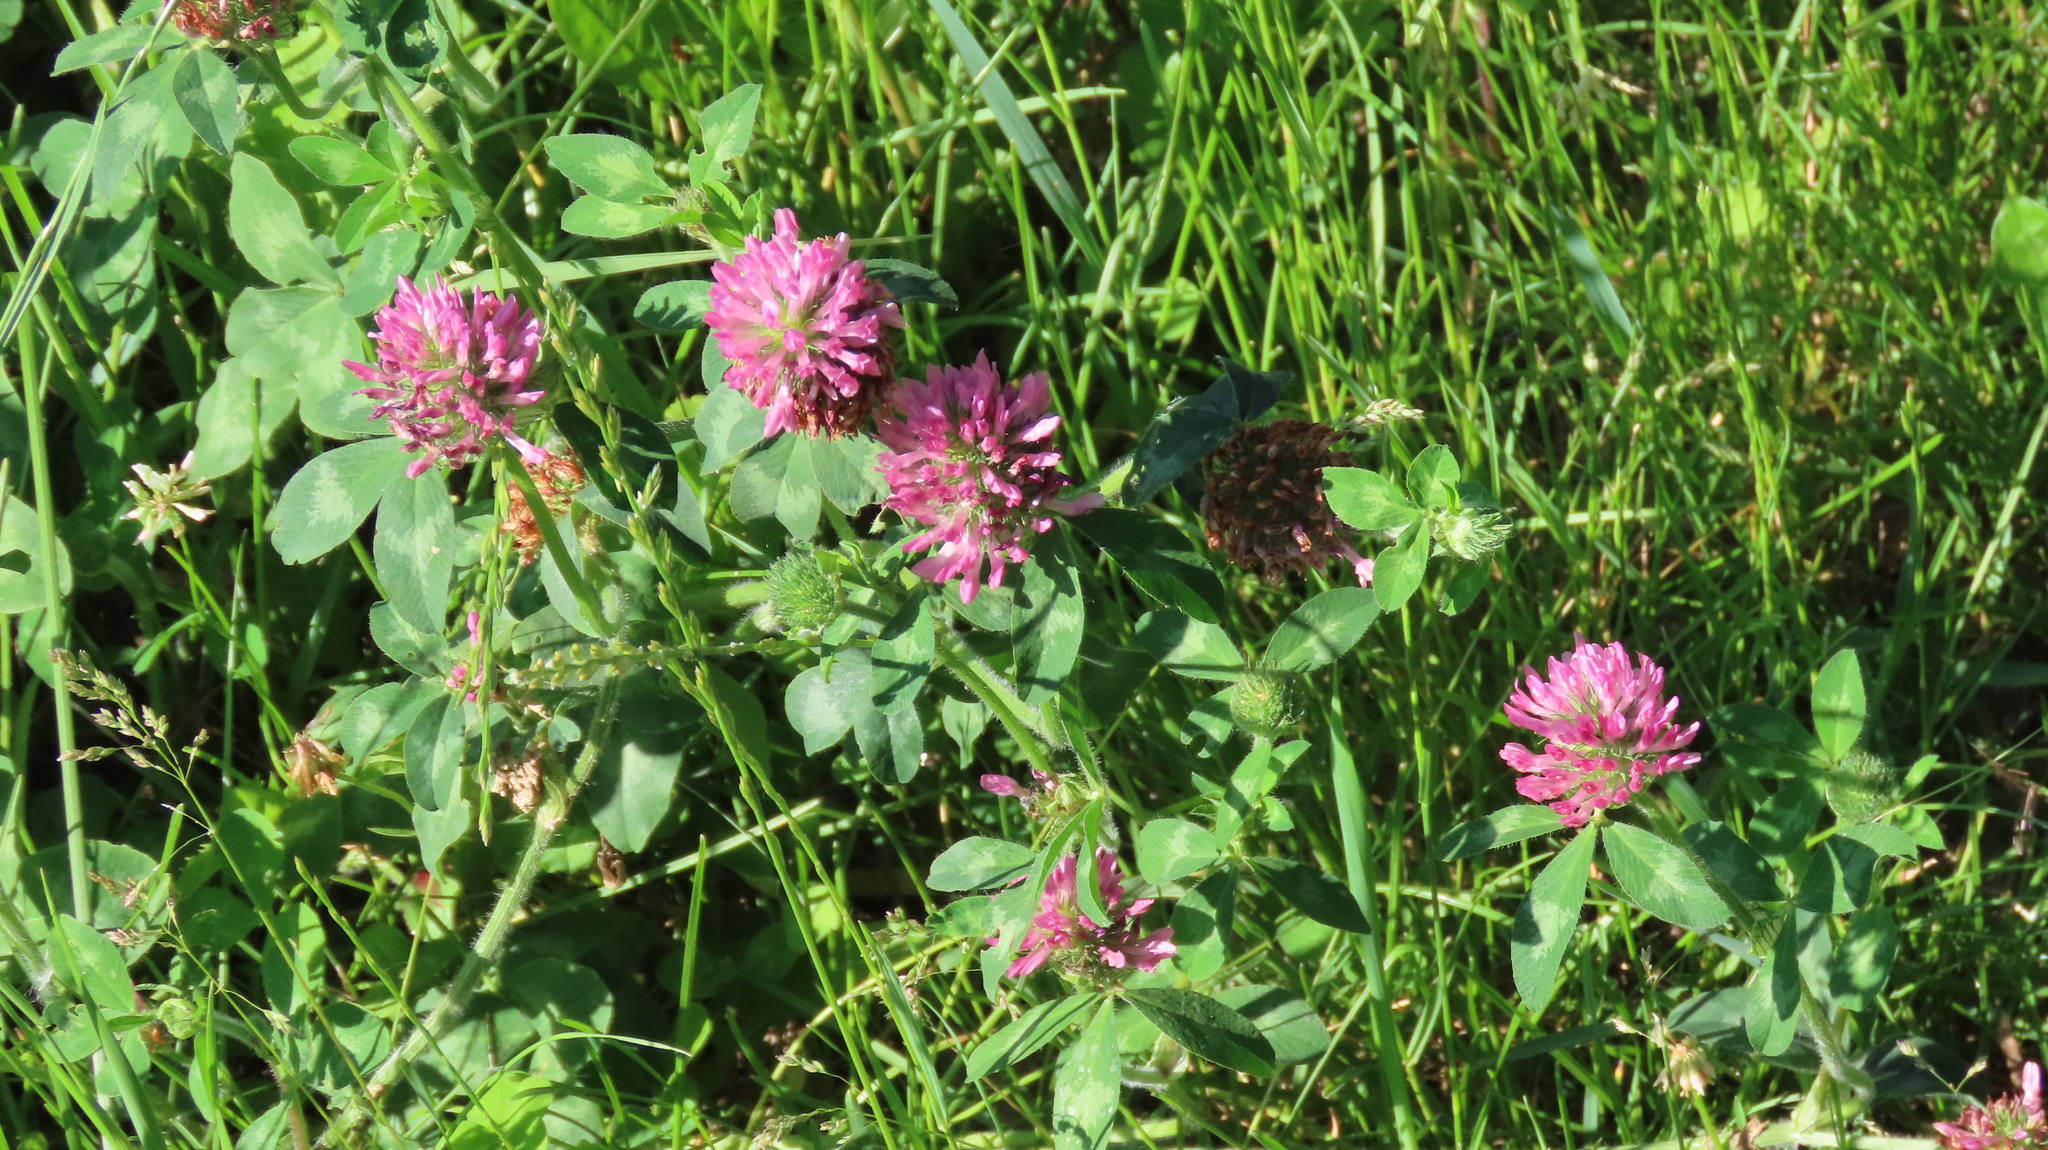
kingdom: Plantae
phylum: Tracheophyta
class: Magnoliopsida
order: Fabales
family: Fabaceae
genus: Trifolium
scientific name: Trifolium pratense
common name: Red clover
